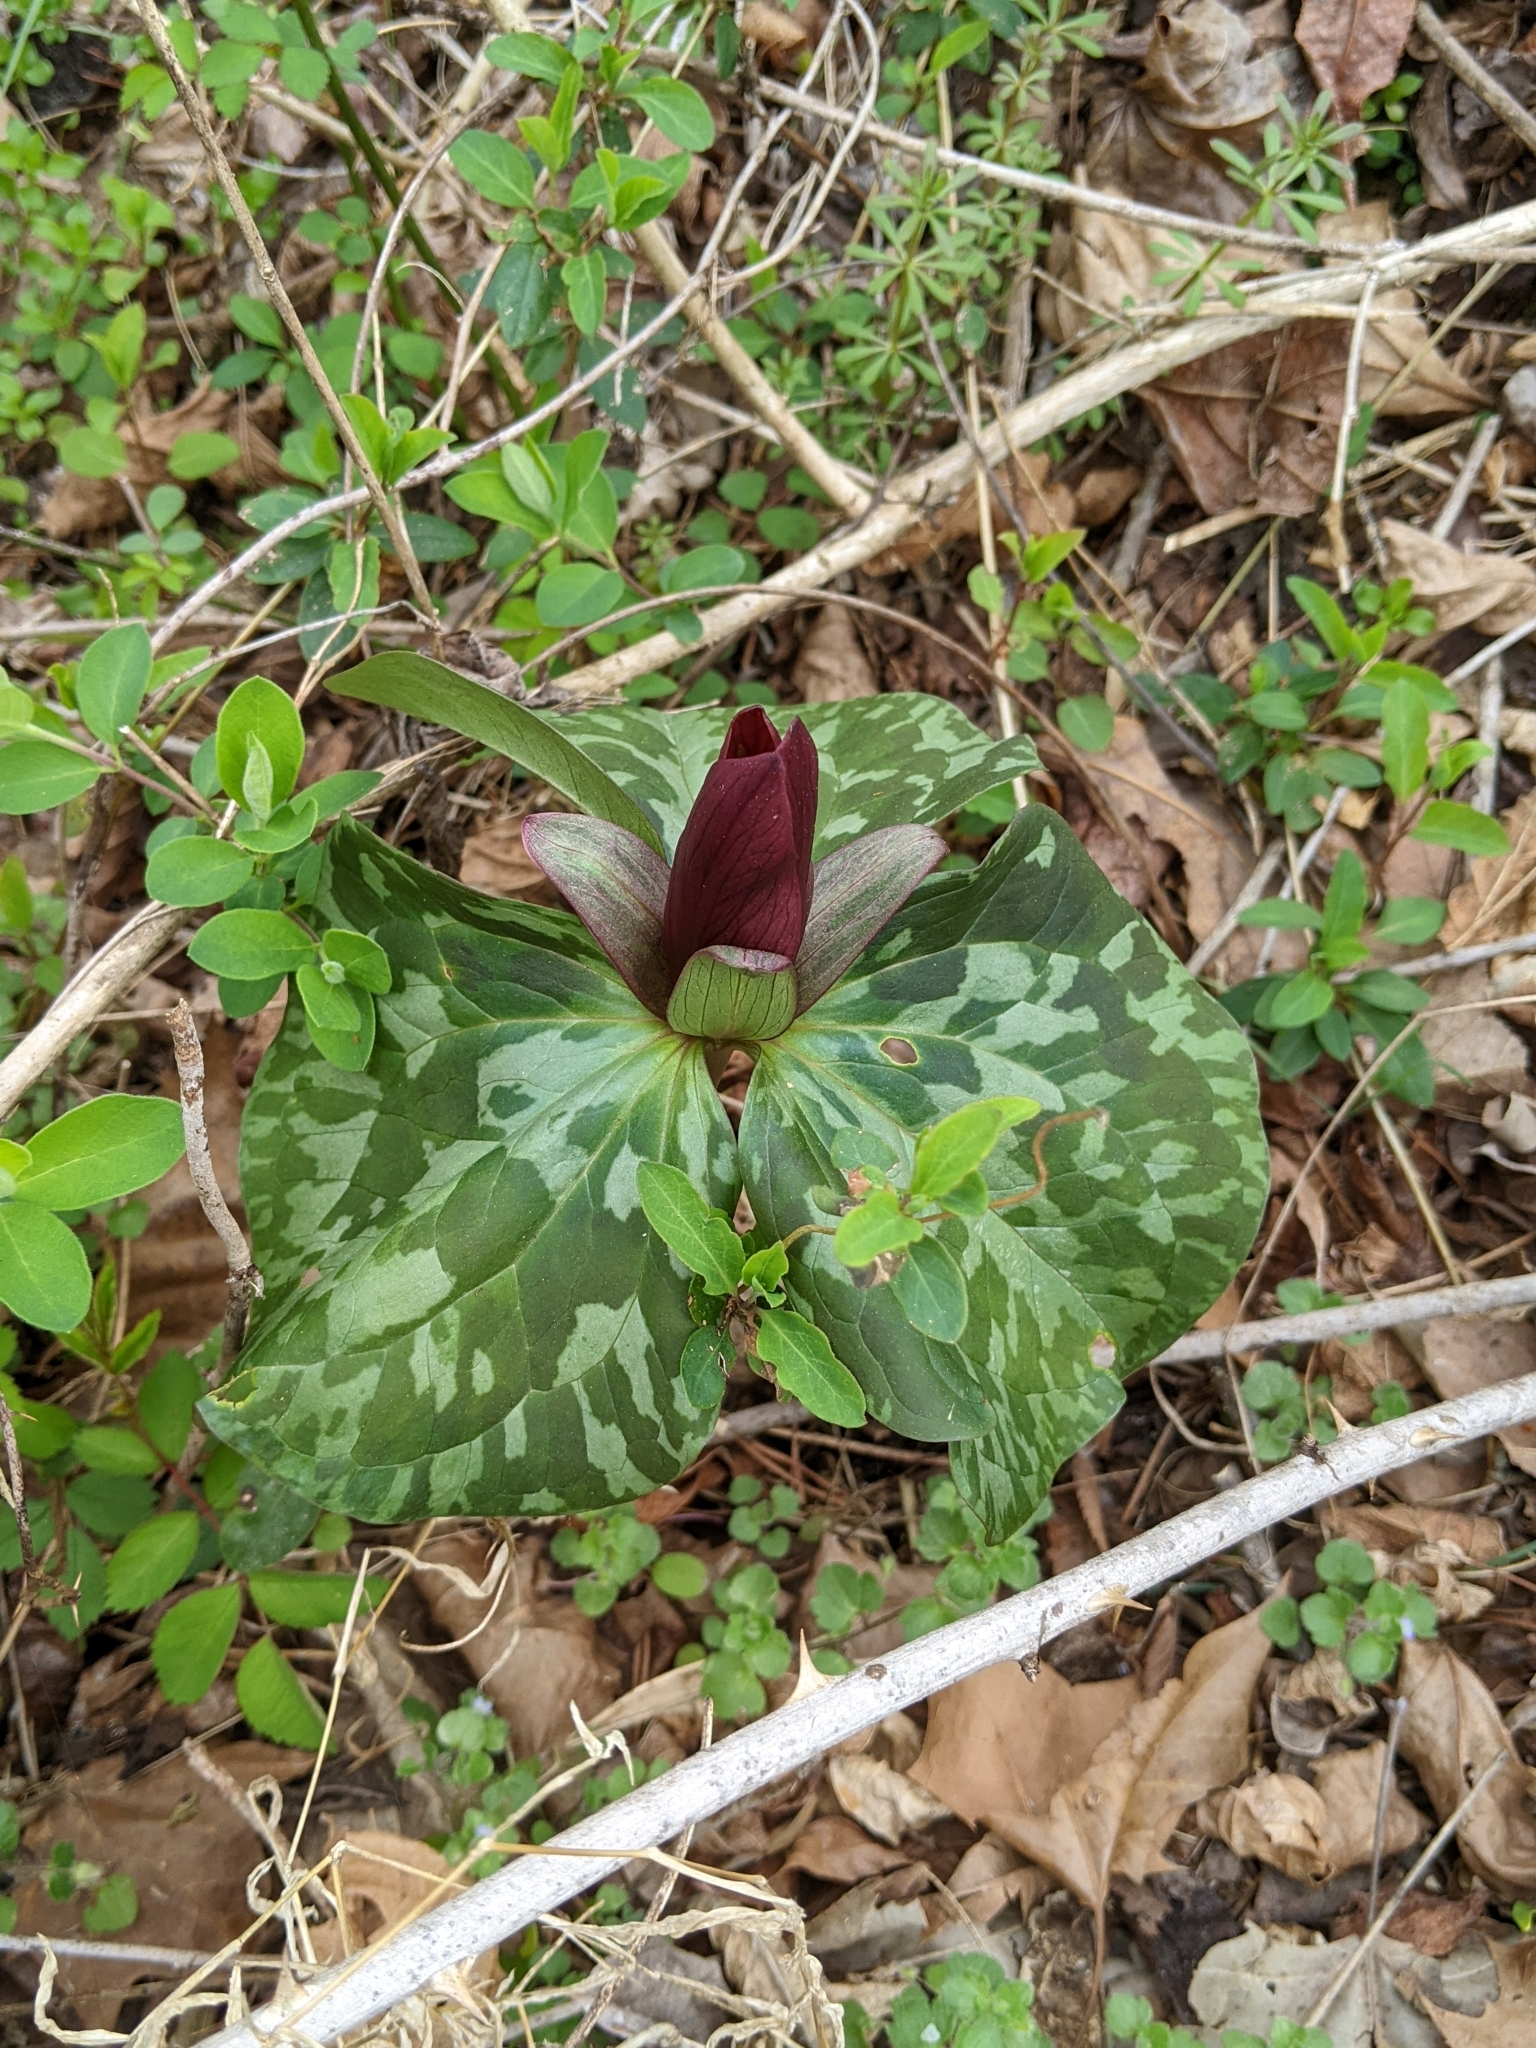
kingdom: Plantae
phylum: Tracheophyta
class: Liliopsida
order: Liliales
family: Melanthiaceae
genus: Trillium
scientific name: Trillium cuneatum
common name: Cuneate trillium
